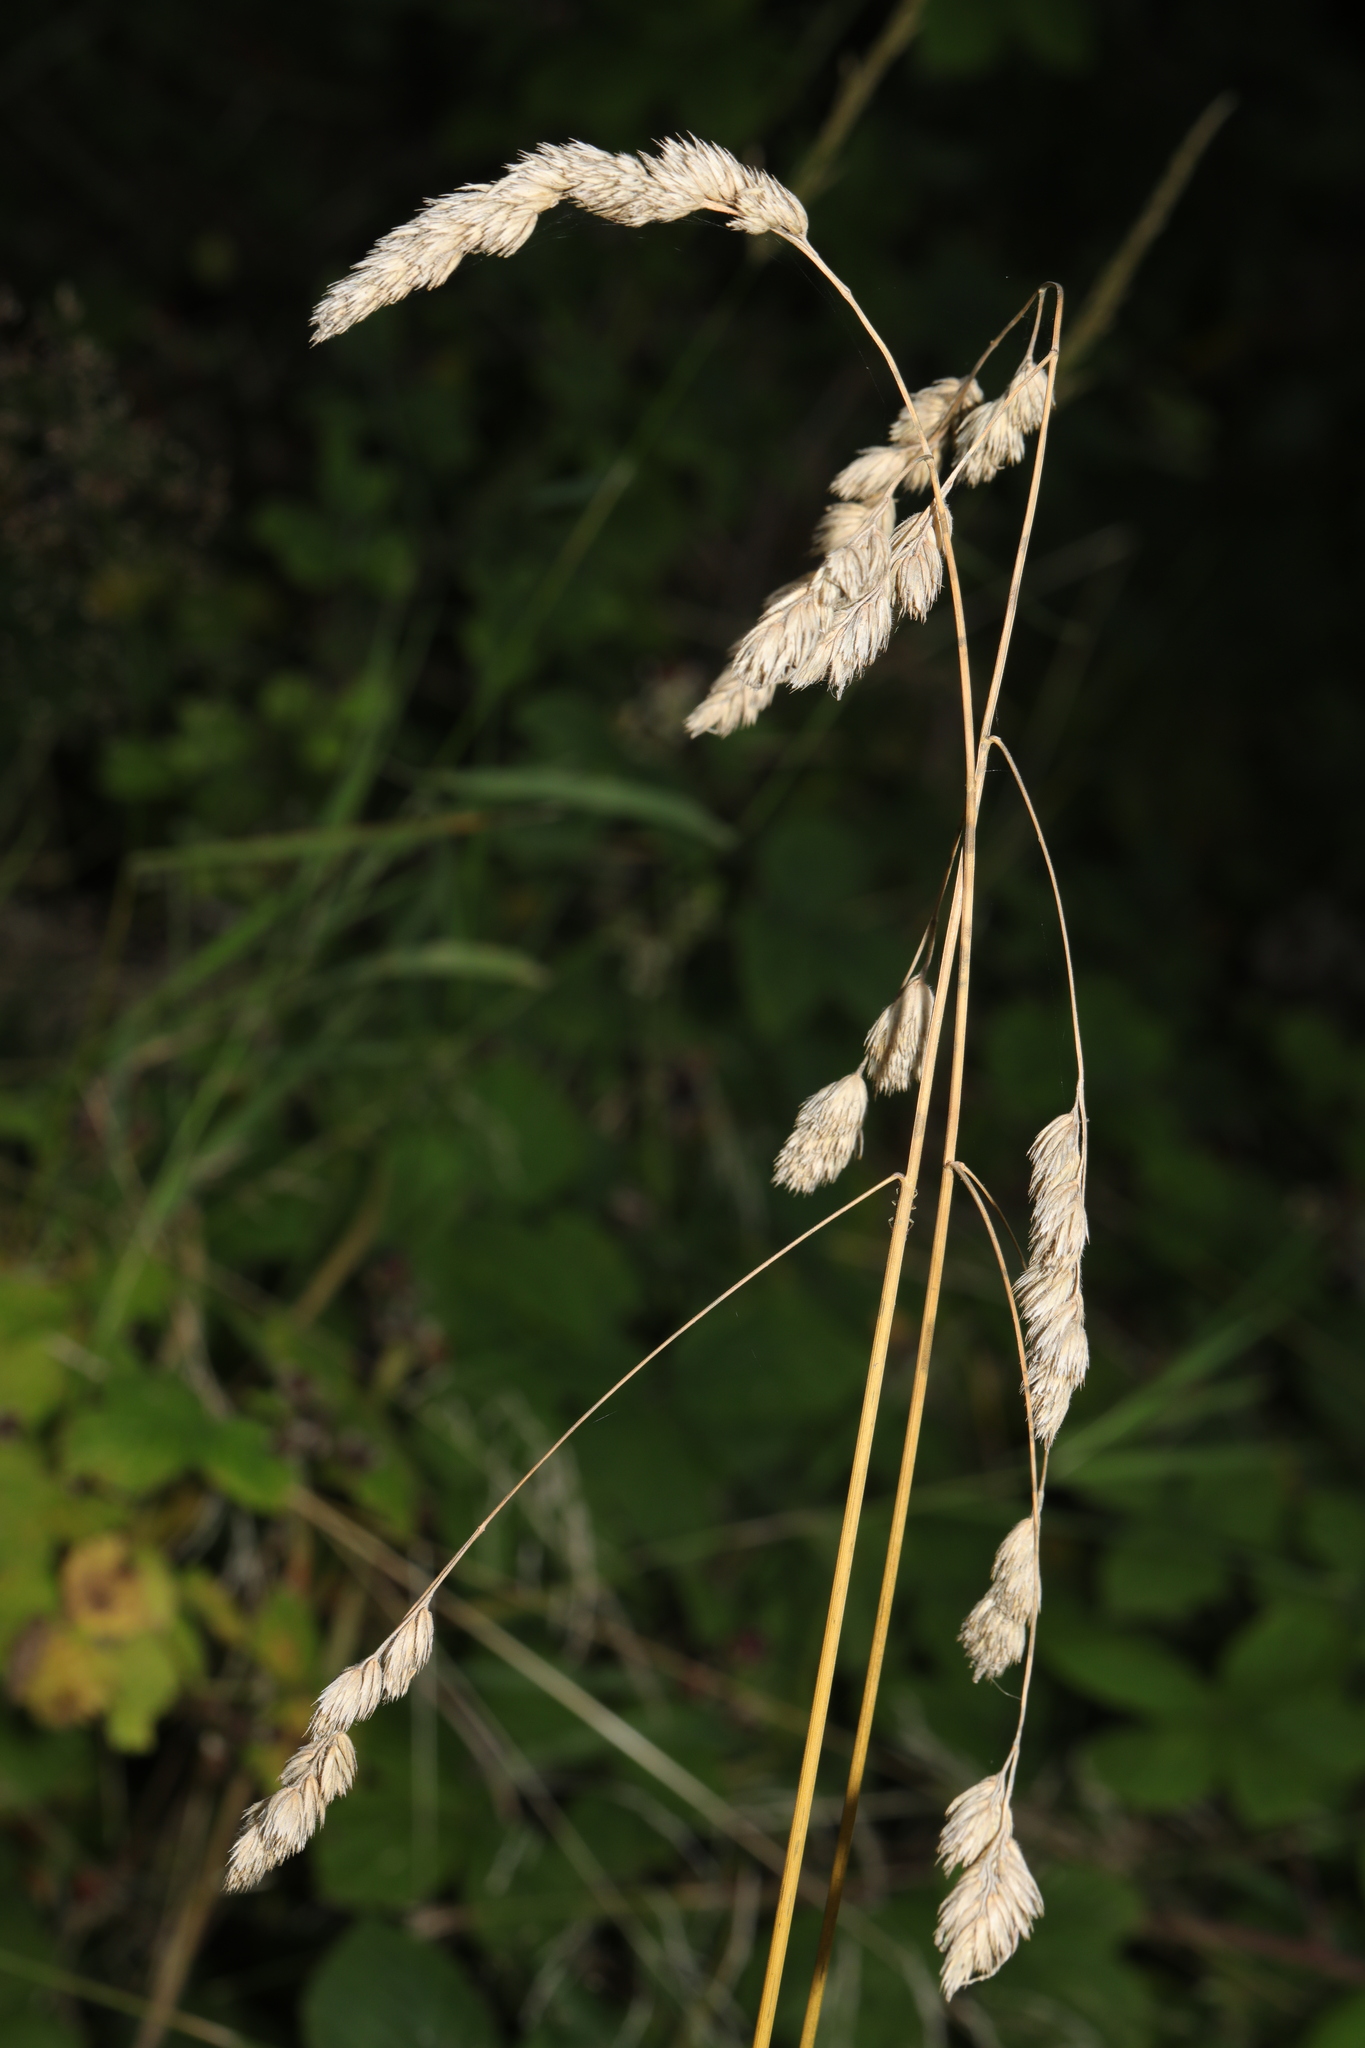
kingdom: Plantae
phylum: Tracheophyta
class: Liliopsida
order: Poales
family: Poaceae
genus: Dactylis
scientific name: Dactylis glomerata
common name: Orchardgrass
